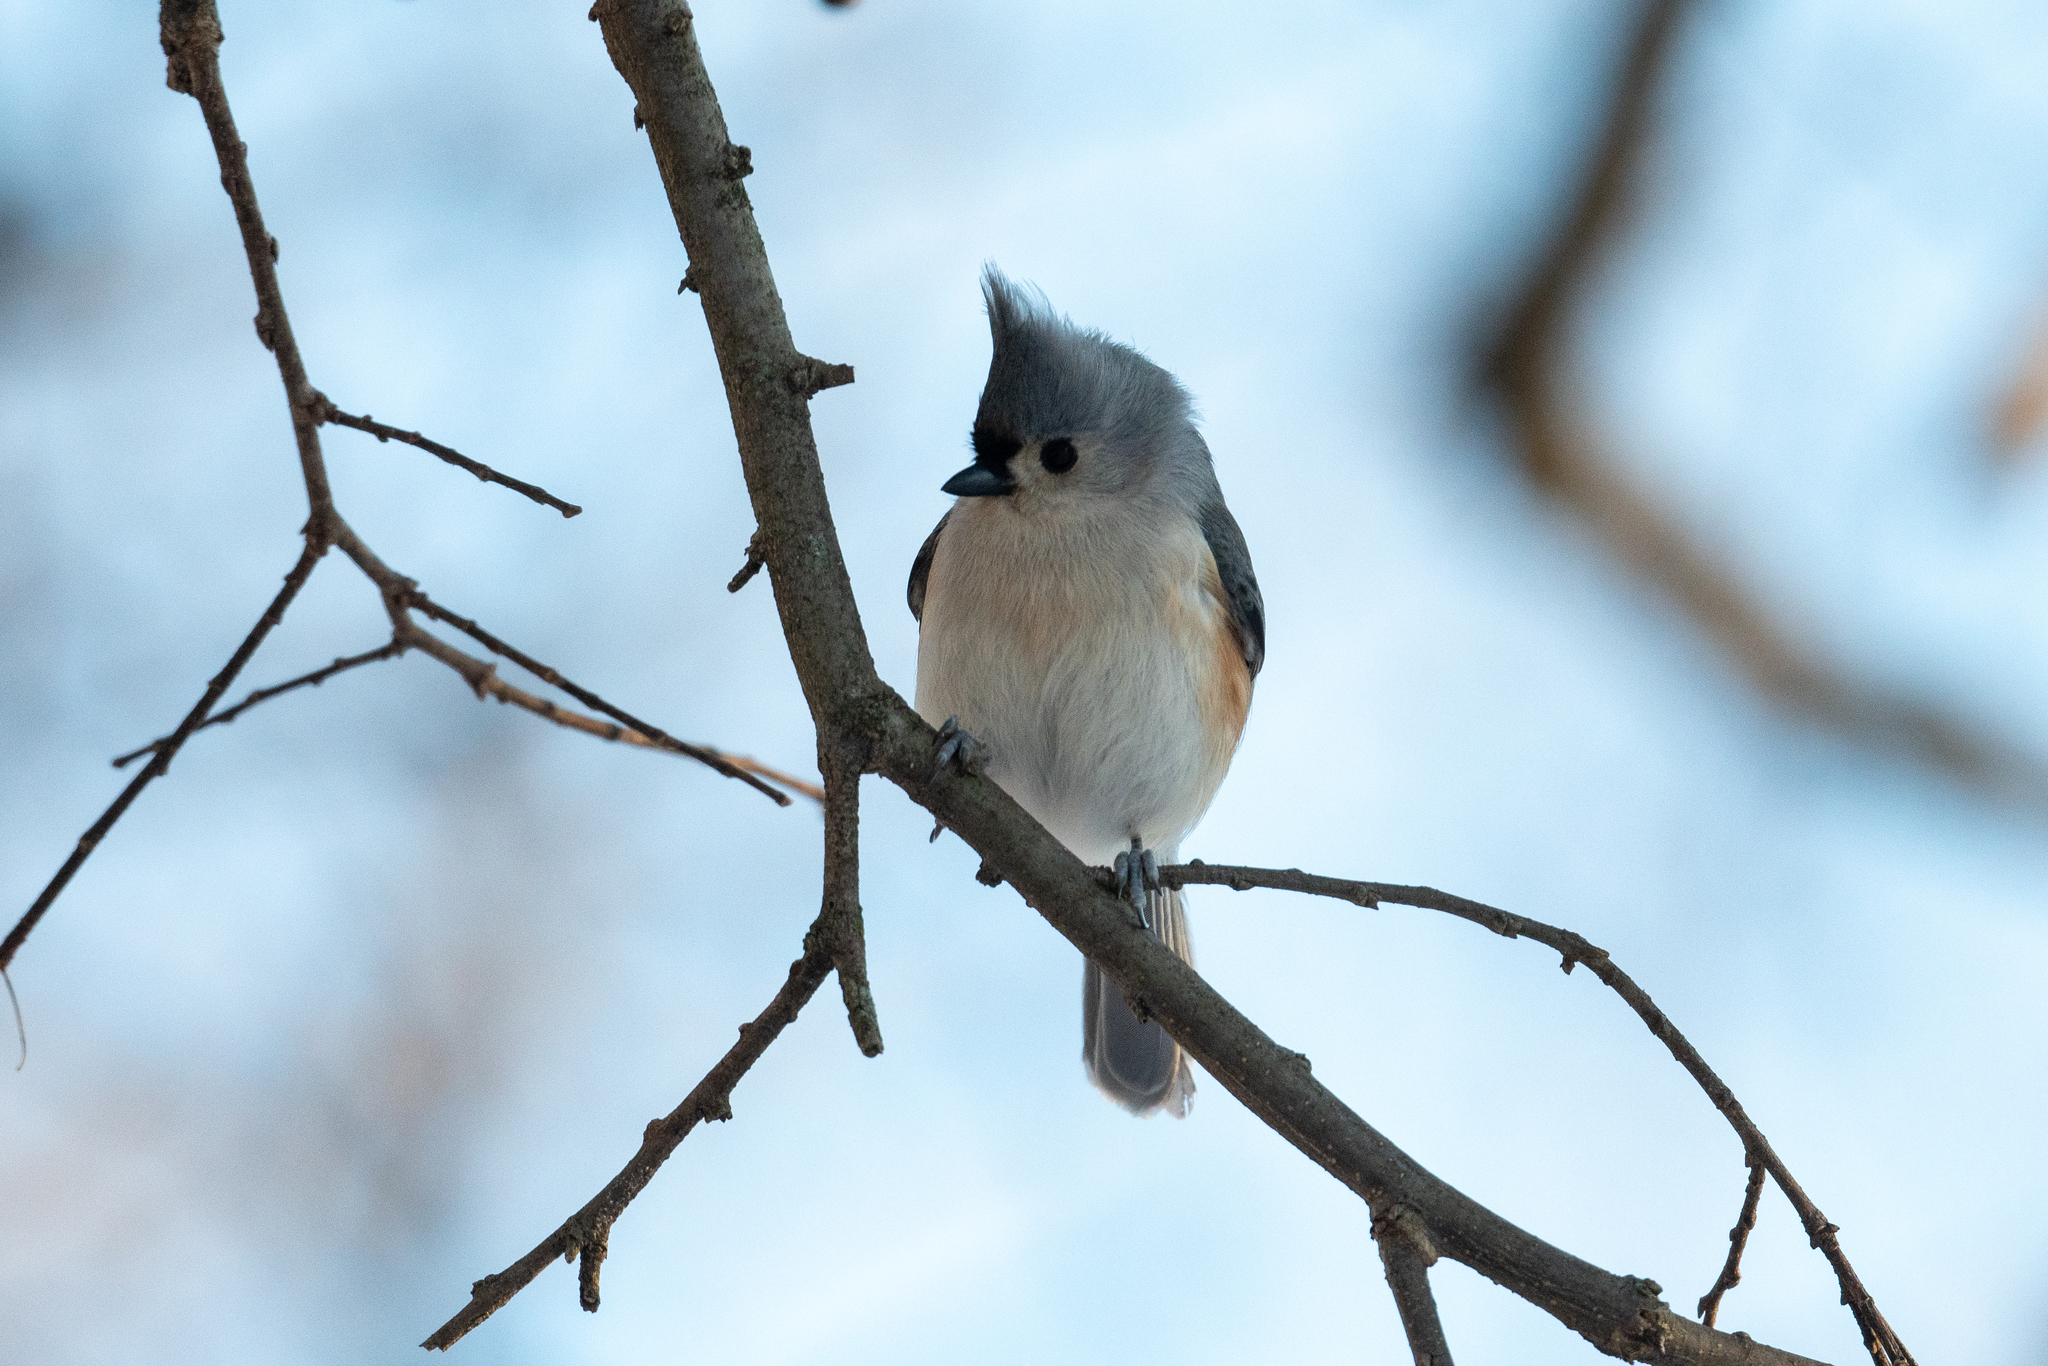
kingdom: Animalia
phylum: Chordata
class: Aves
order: Passeriformes
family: Paridae
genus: Baeolophus
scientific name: Baeolophus bicolor
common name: Tufted titmouse
